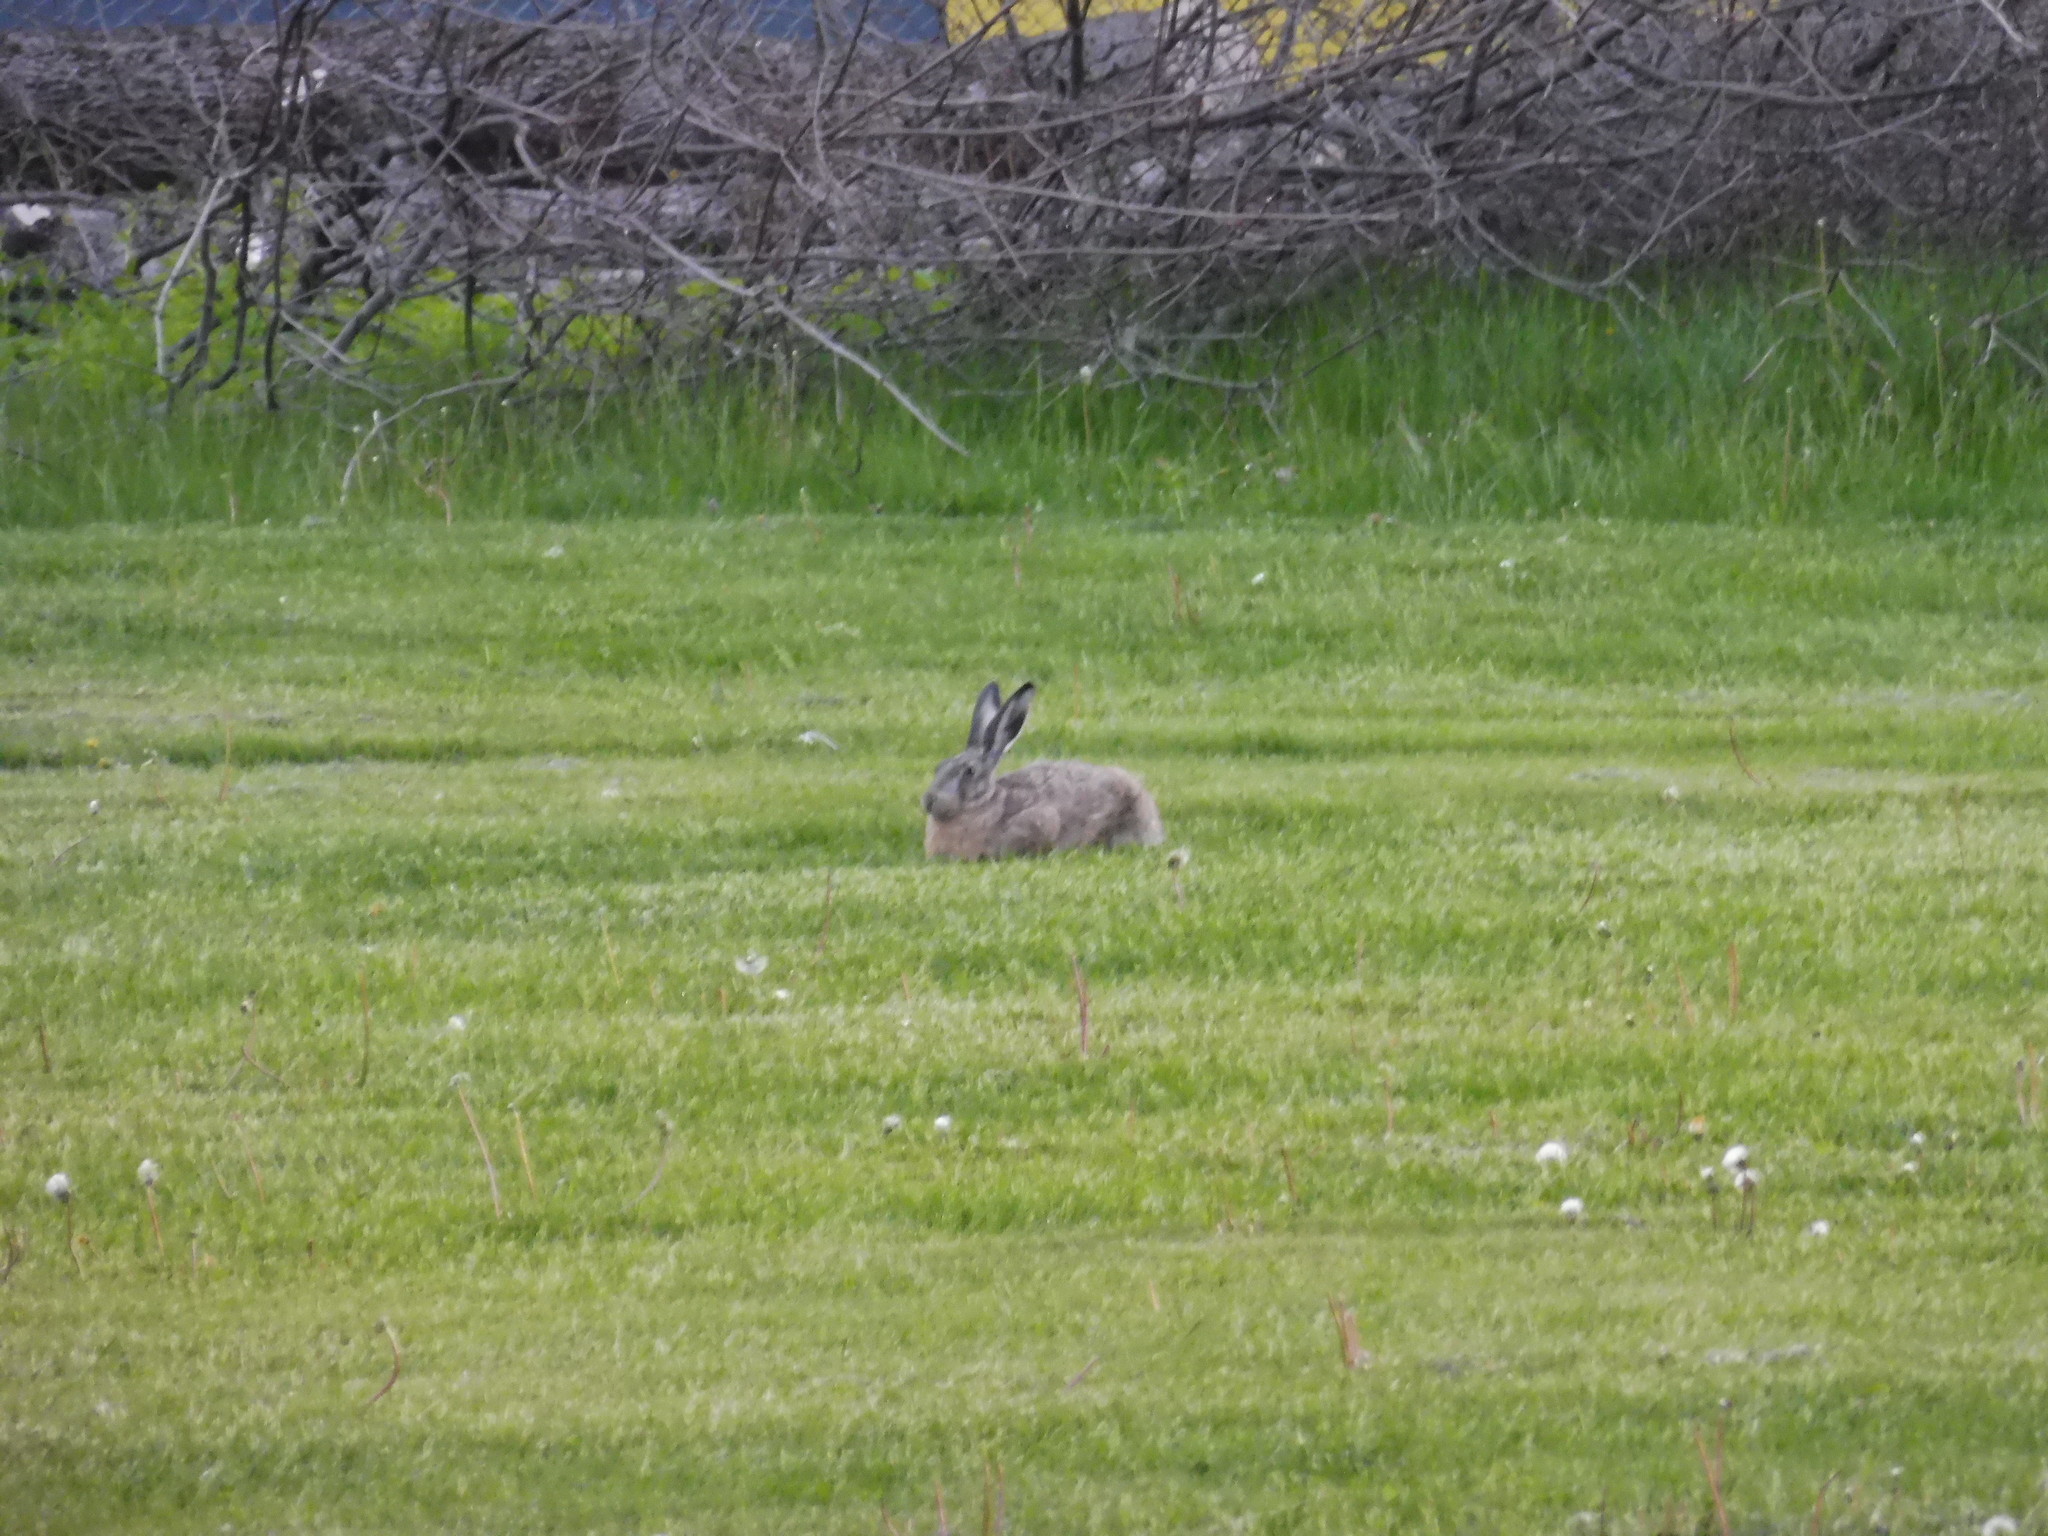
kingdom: Animalia
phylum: Chordata
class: Mammalia
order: Lagomorpha
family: Leporidae
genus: Lepus
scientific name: Lepus europaeus
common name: European hare
